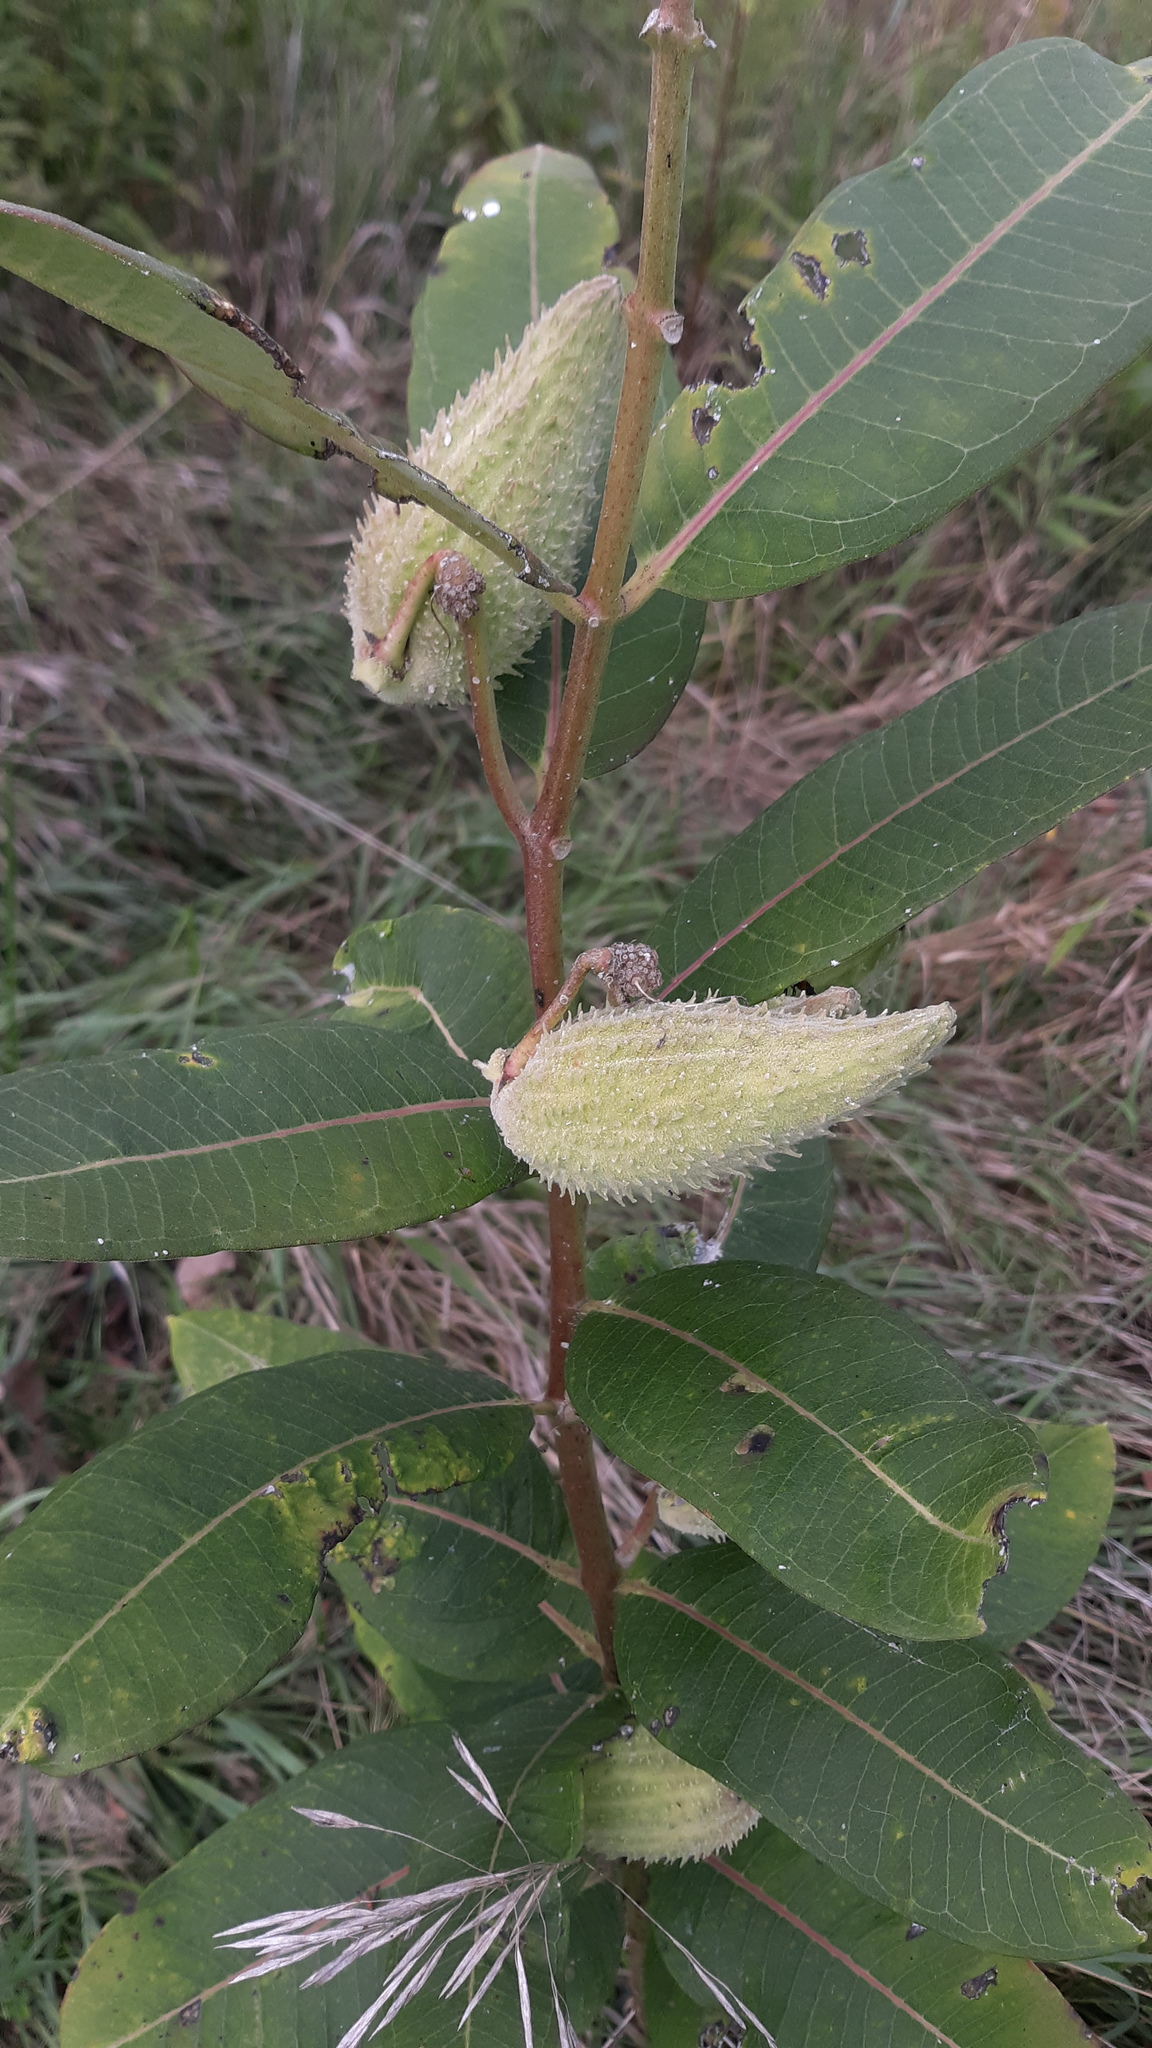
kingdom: Plantae
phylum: Tracheophyta
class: Magnoliopsida
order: Gentianales
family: Apocynaceae
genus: Asclepias
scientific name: Asclepias syriaca
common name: Common milkweed
